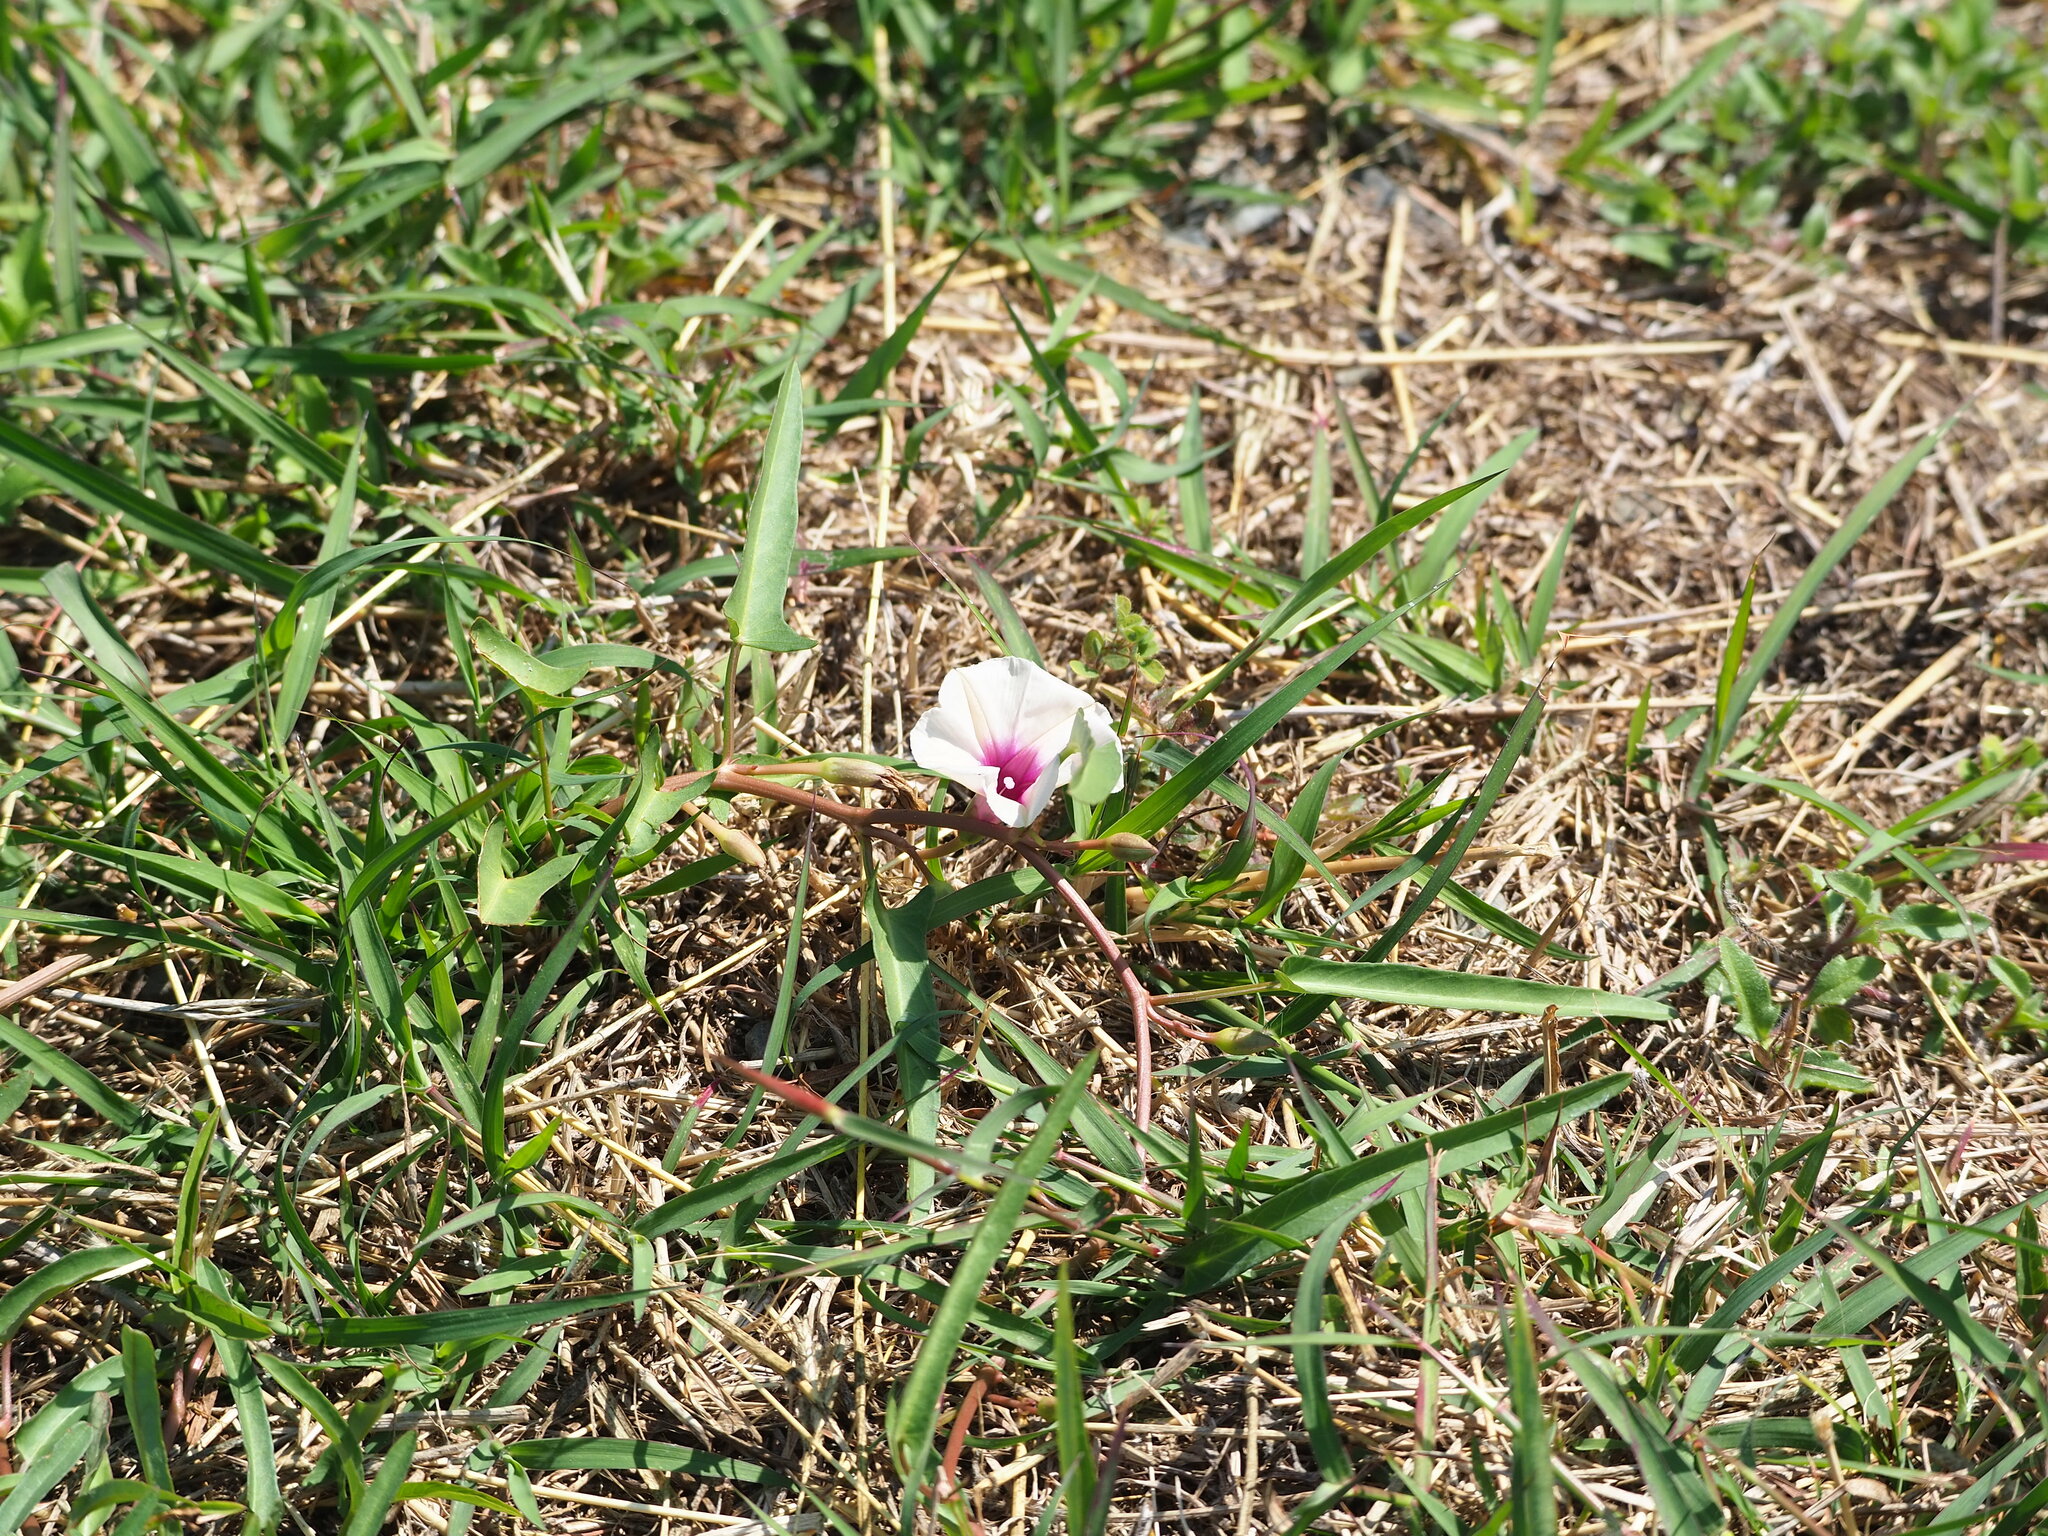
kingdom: Plantae
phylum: Tracheophyta
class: Magnoliopsida
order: Solanales
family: Convolvulaceae
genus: Ipomoea
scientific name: Ipomoea aquatica
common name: Swamp morning-glory
